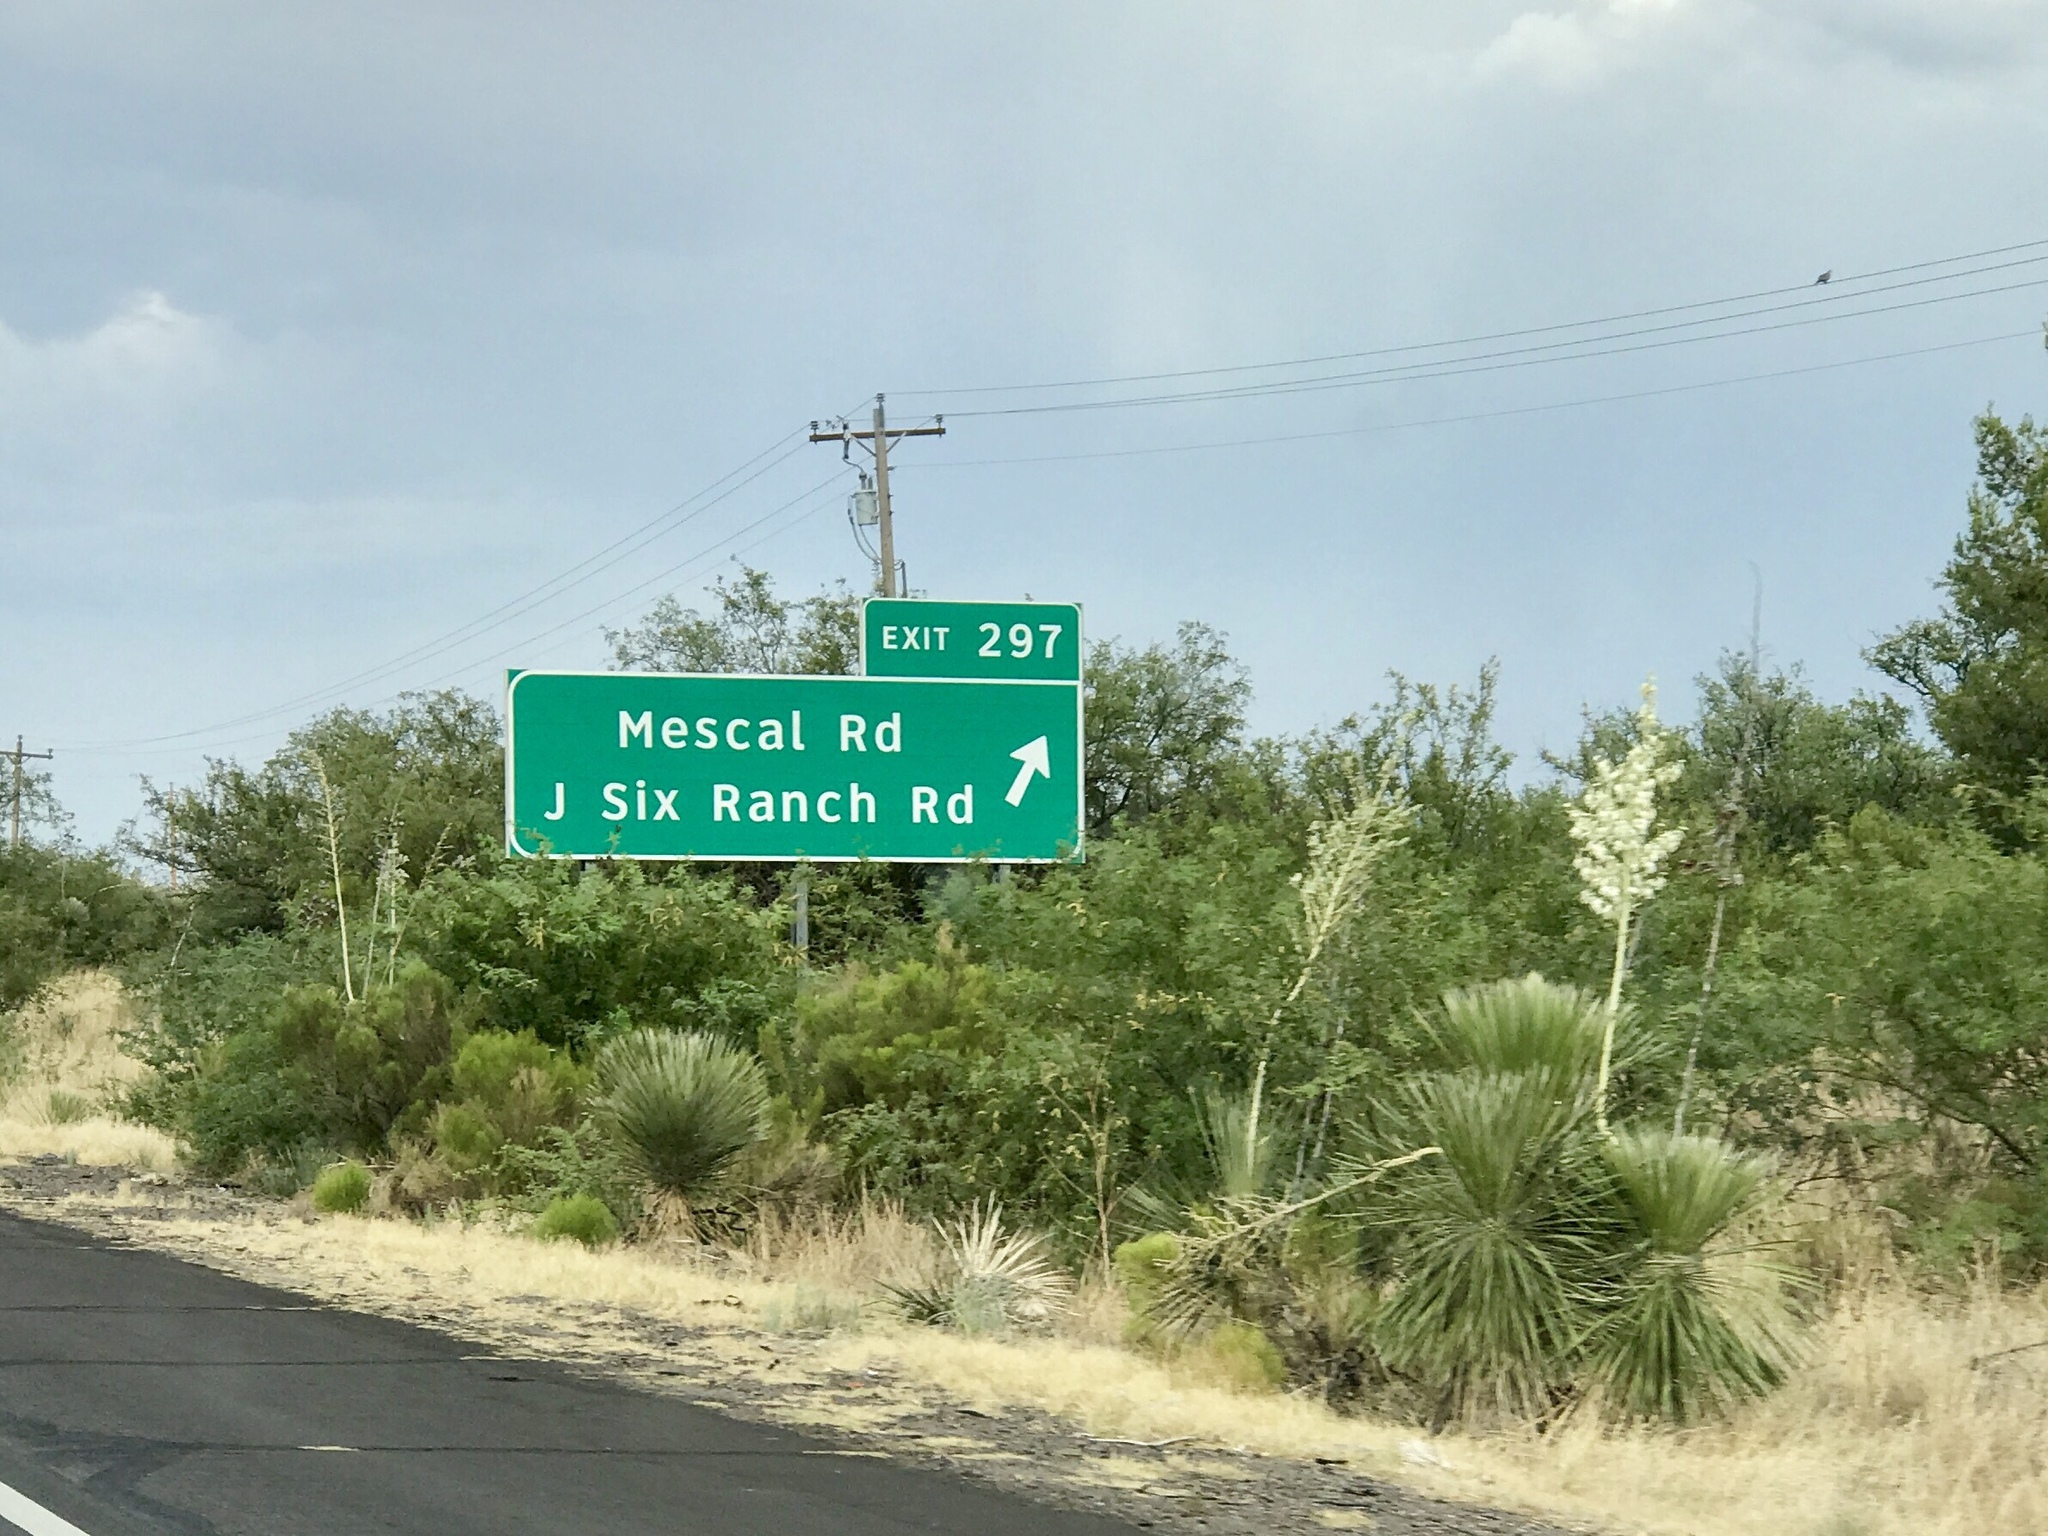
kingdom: Plantae
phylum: Tracheophyta
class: Liliopsida
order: Asparagales
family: Asparagaceae
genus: Yucca
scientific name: Yucca elata
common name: Palmella
